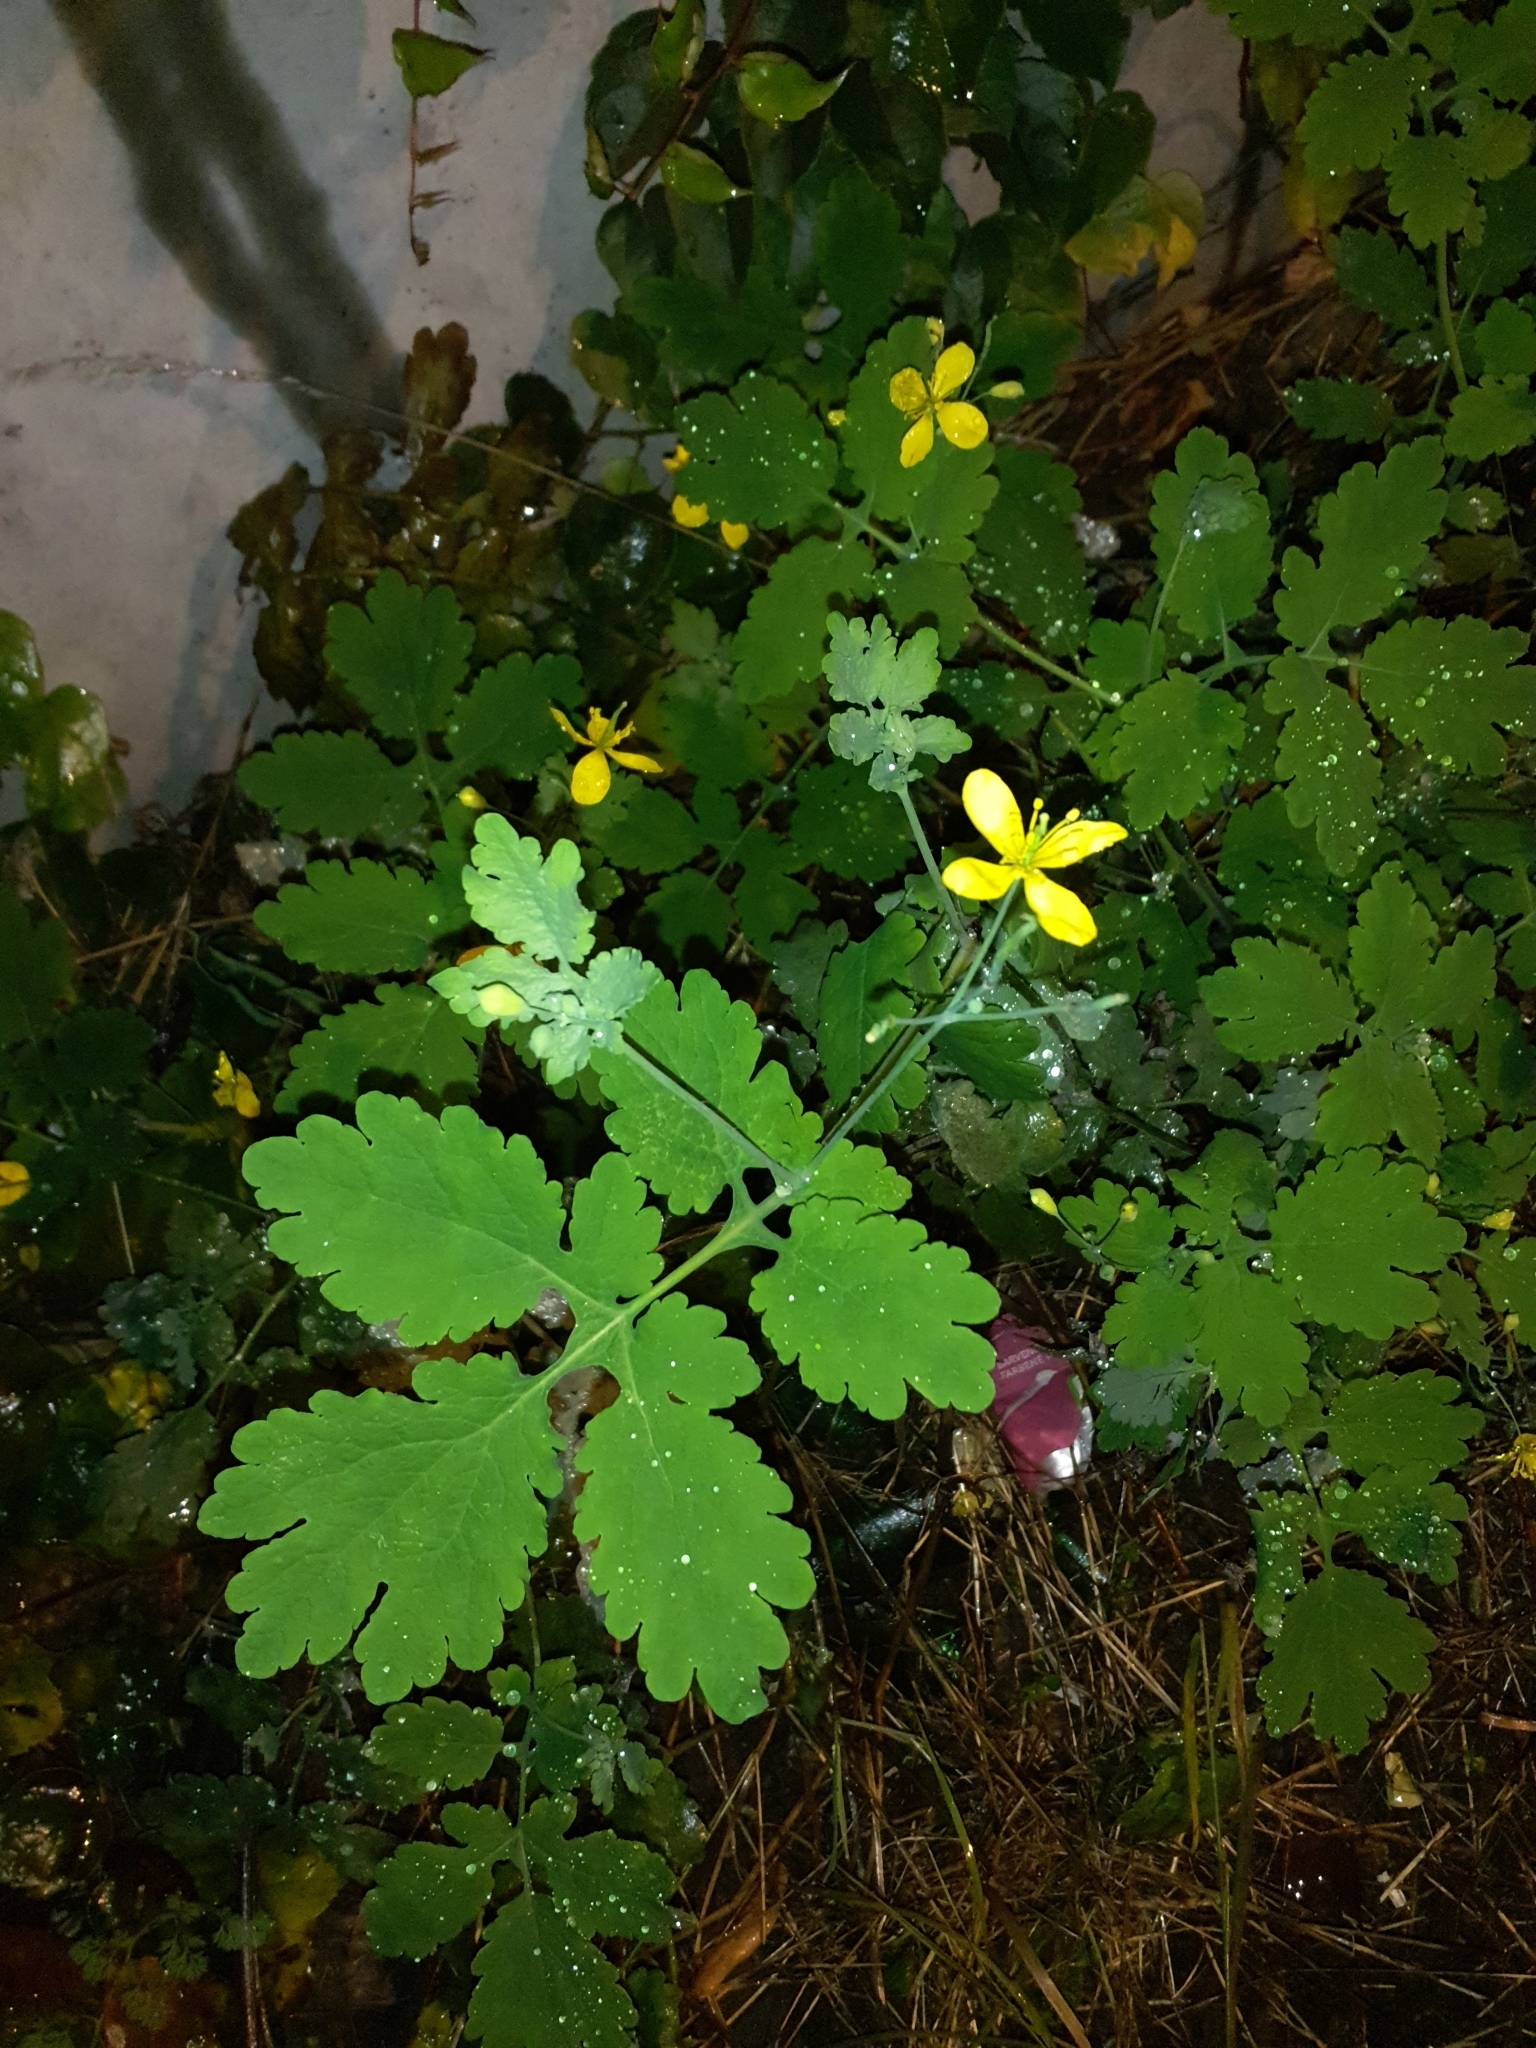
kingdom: Plantae
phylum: Tracheophyta
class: Magnoliopsida
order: Ranunculales
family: Papaveraceae
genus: Chelidonium
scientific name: Chelidonium majus
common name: Greater celandine
